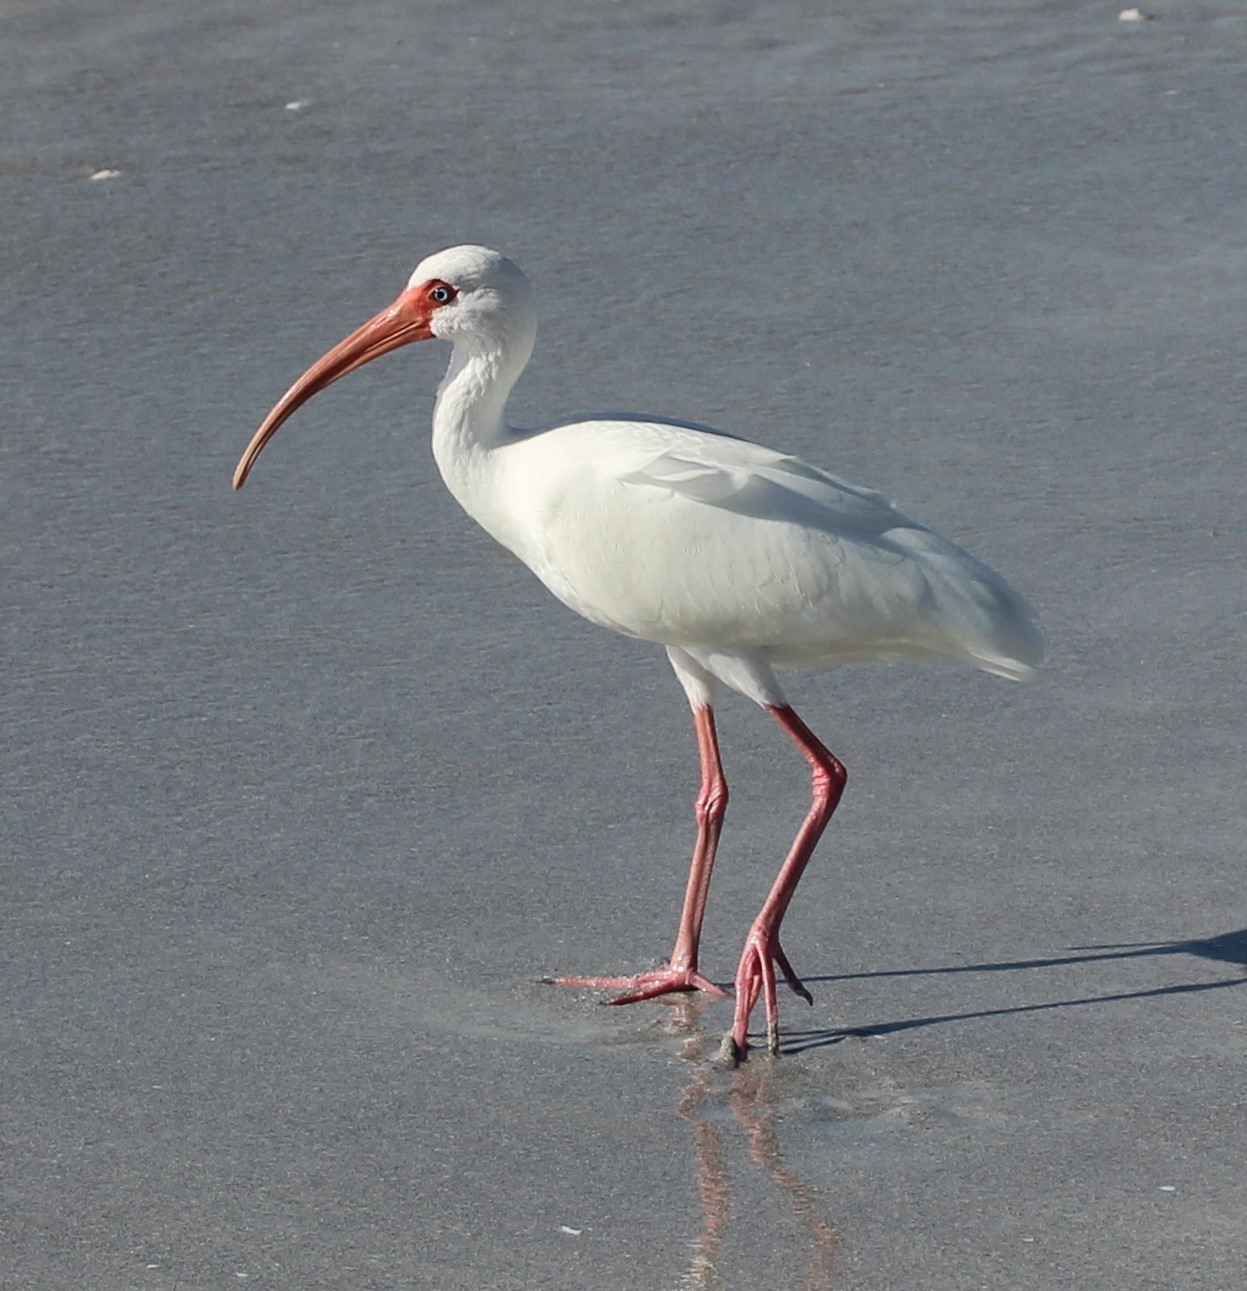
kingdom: Animalia
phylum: Chordata
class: Aves
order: Pelecaniformes
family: Threskiornithidae
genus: Eudocimus
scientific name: Eudocimus albus
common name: White ibis
